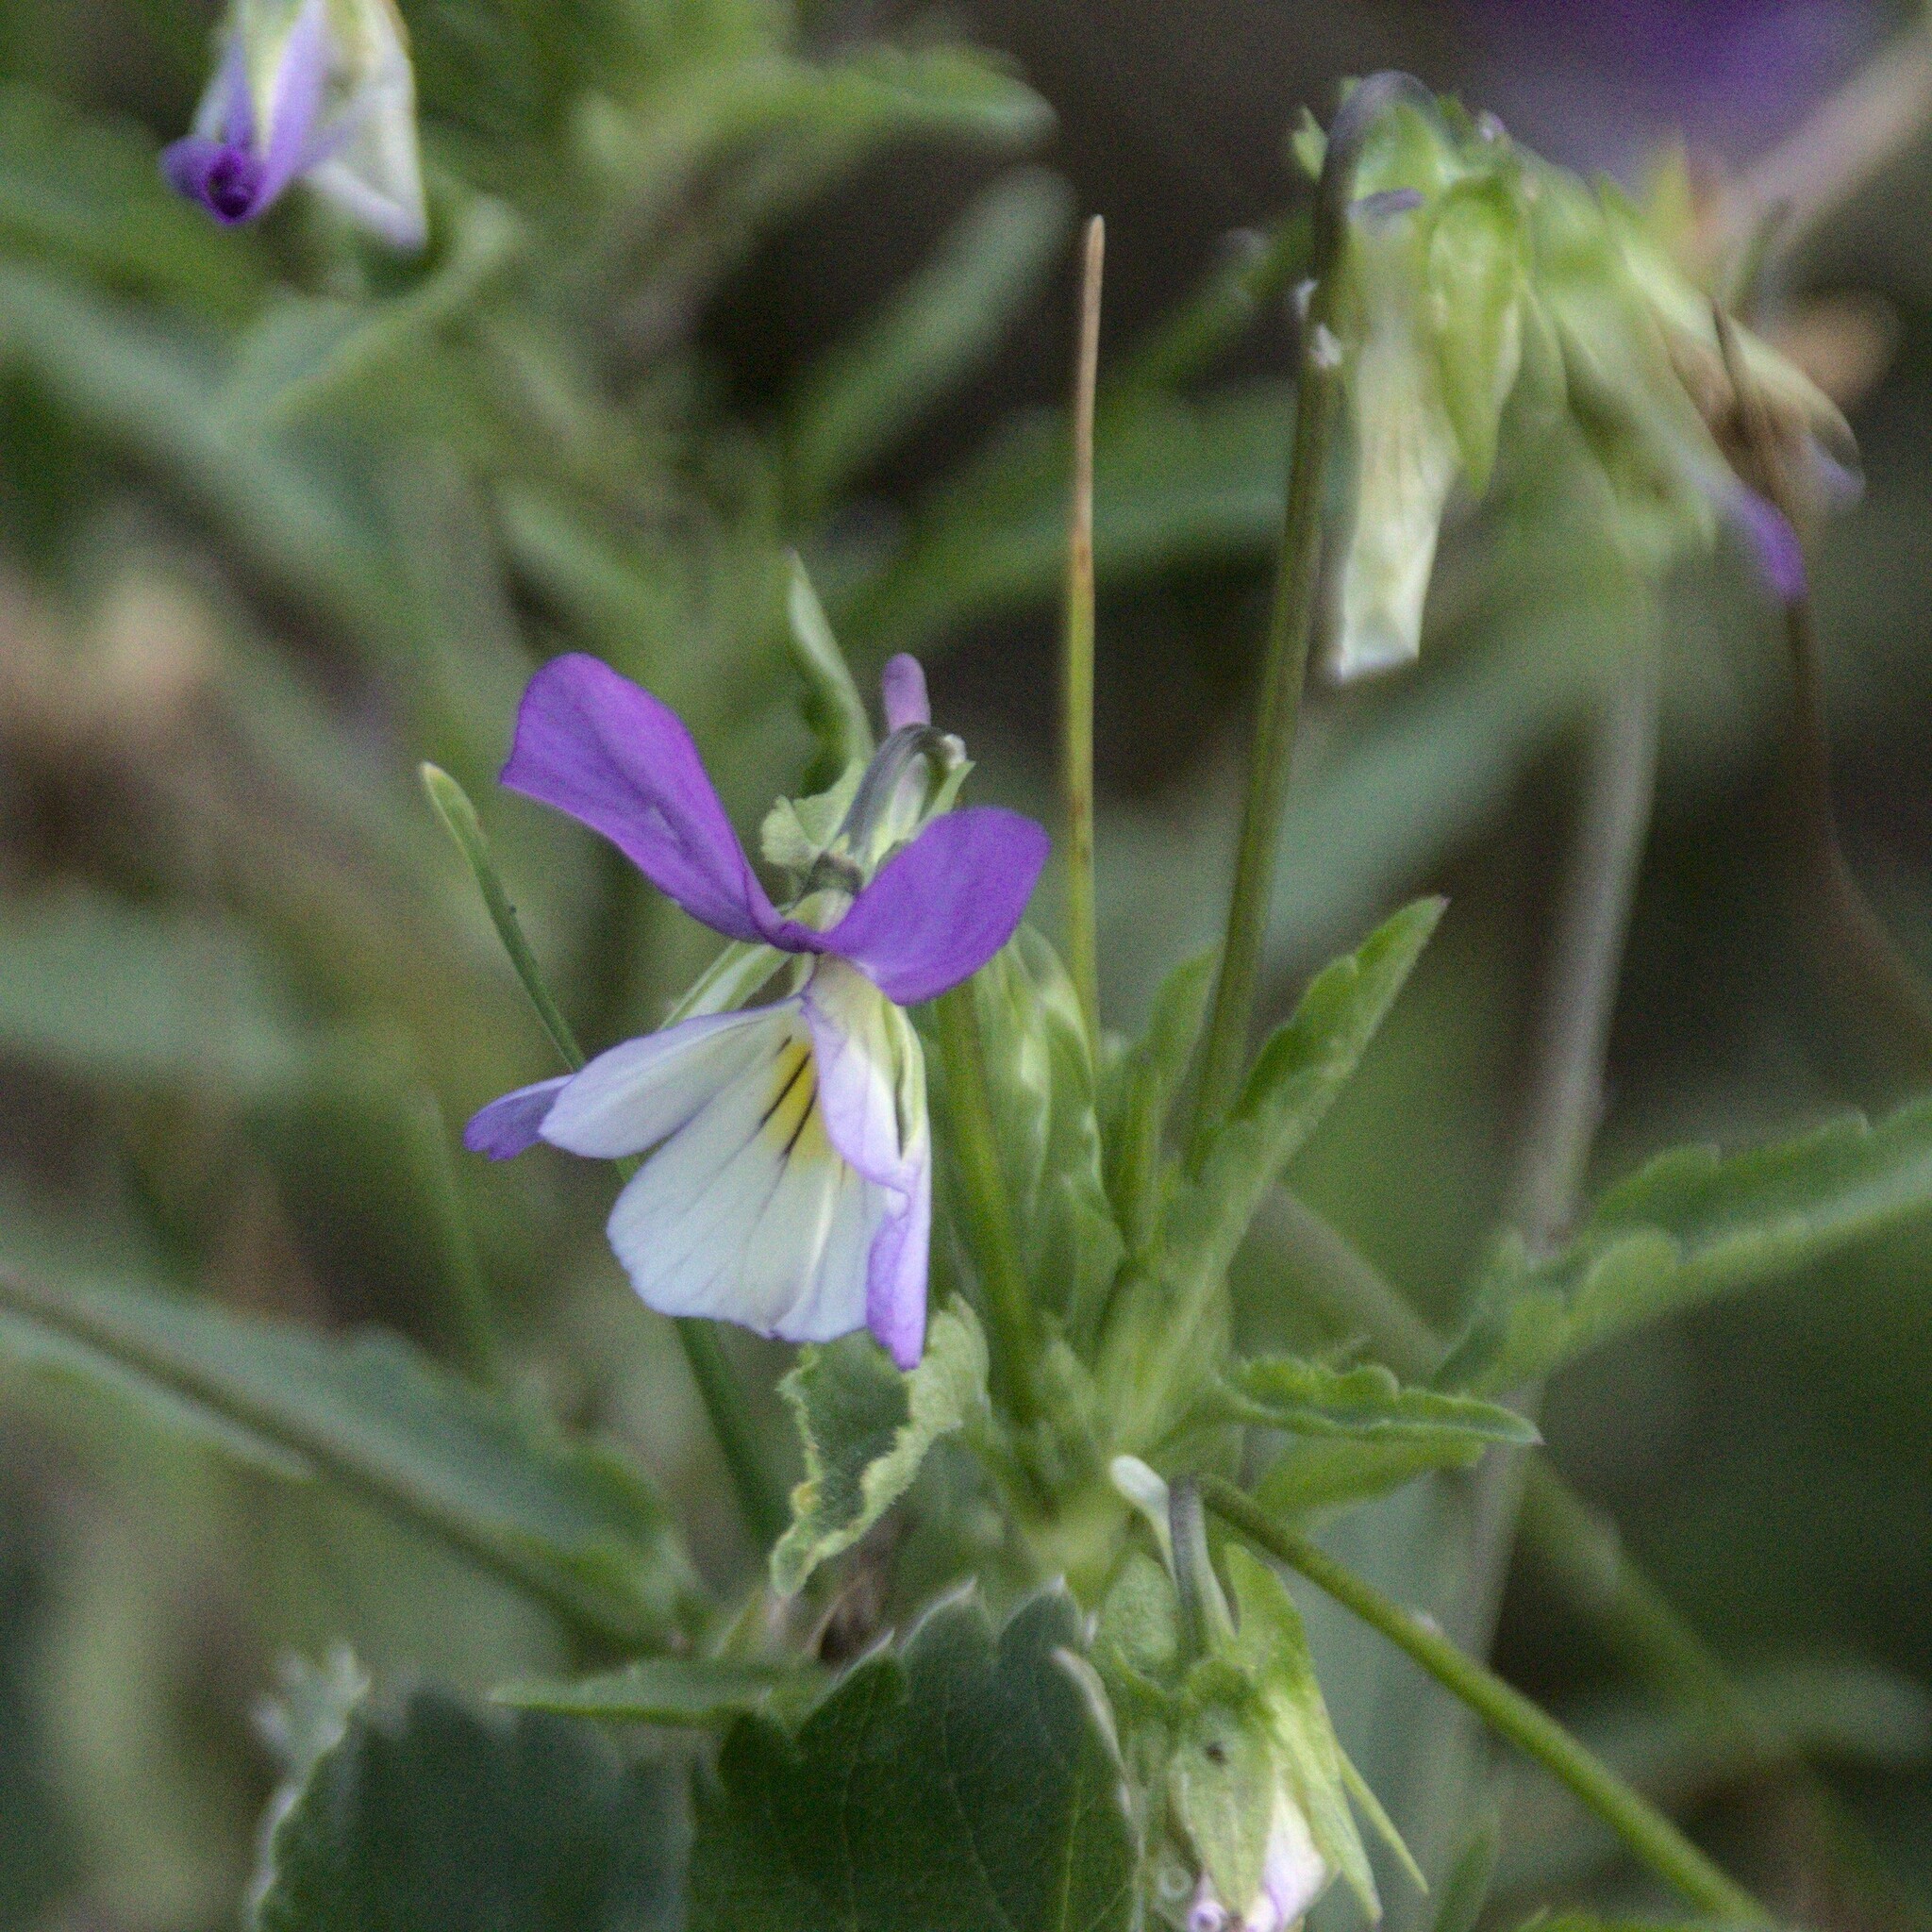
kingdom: Plantae
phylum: Tracheophyta
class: Magnoliopsida
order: Malpighiales
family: Violaceae
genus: Viola
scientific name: Viola tricolor
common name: Pansy
